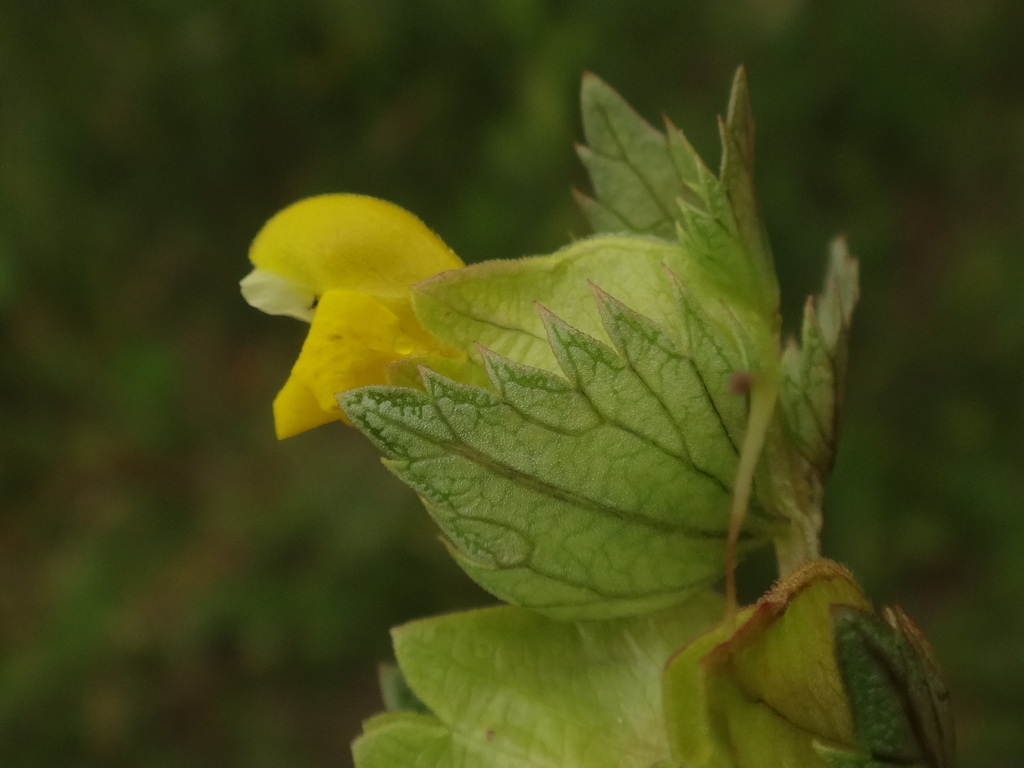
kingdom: Plantae
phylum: Tracheophyta
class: Magnoliopsida
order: Lamiales
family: Orobanchaceae
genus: Rhinanthus
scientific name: Rhinanthus minor
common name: Yellow-rattle
